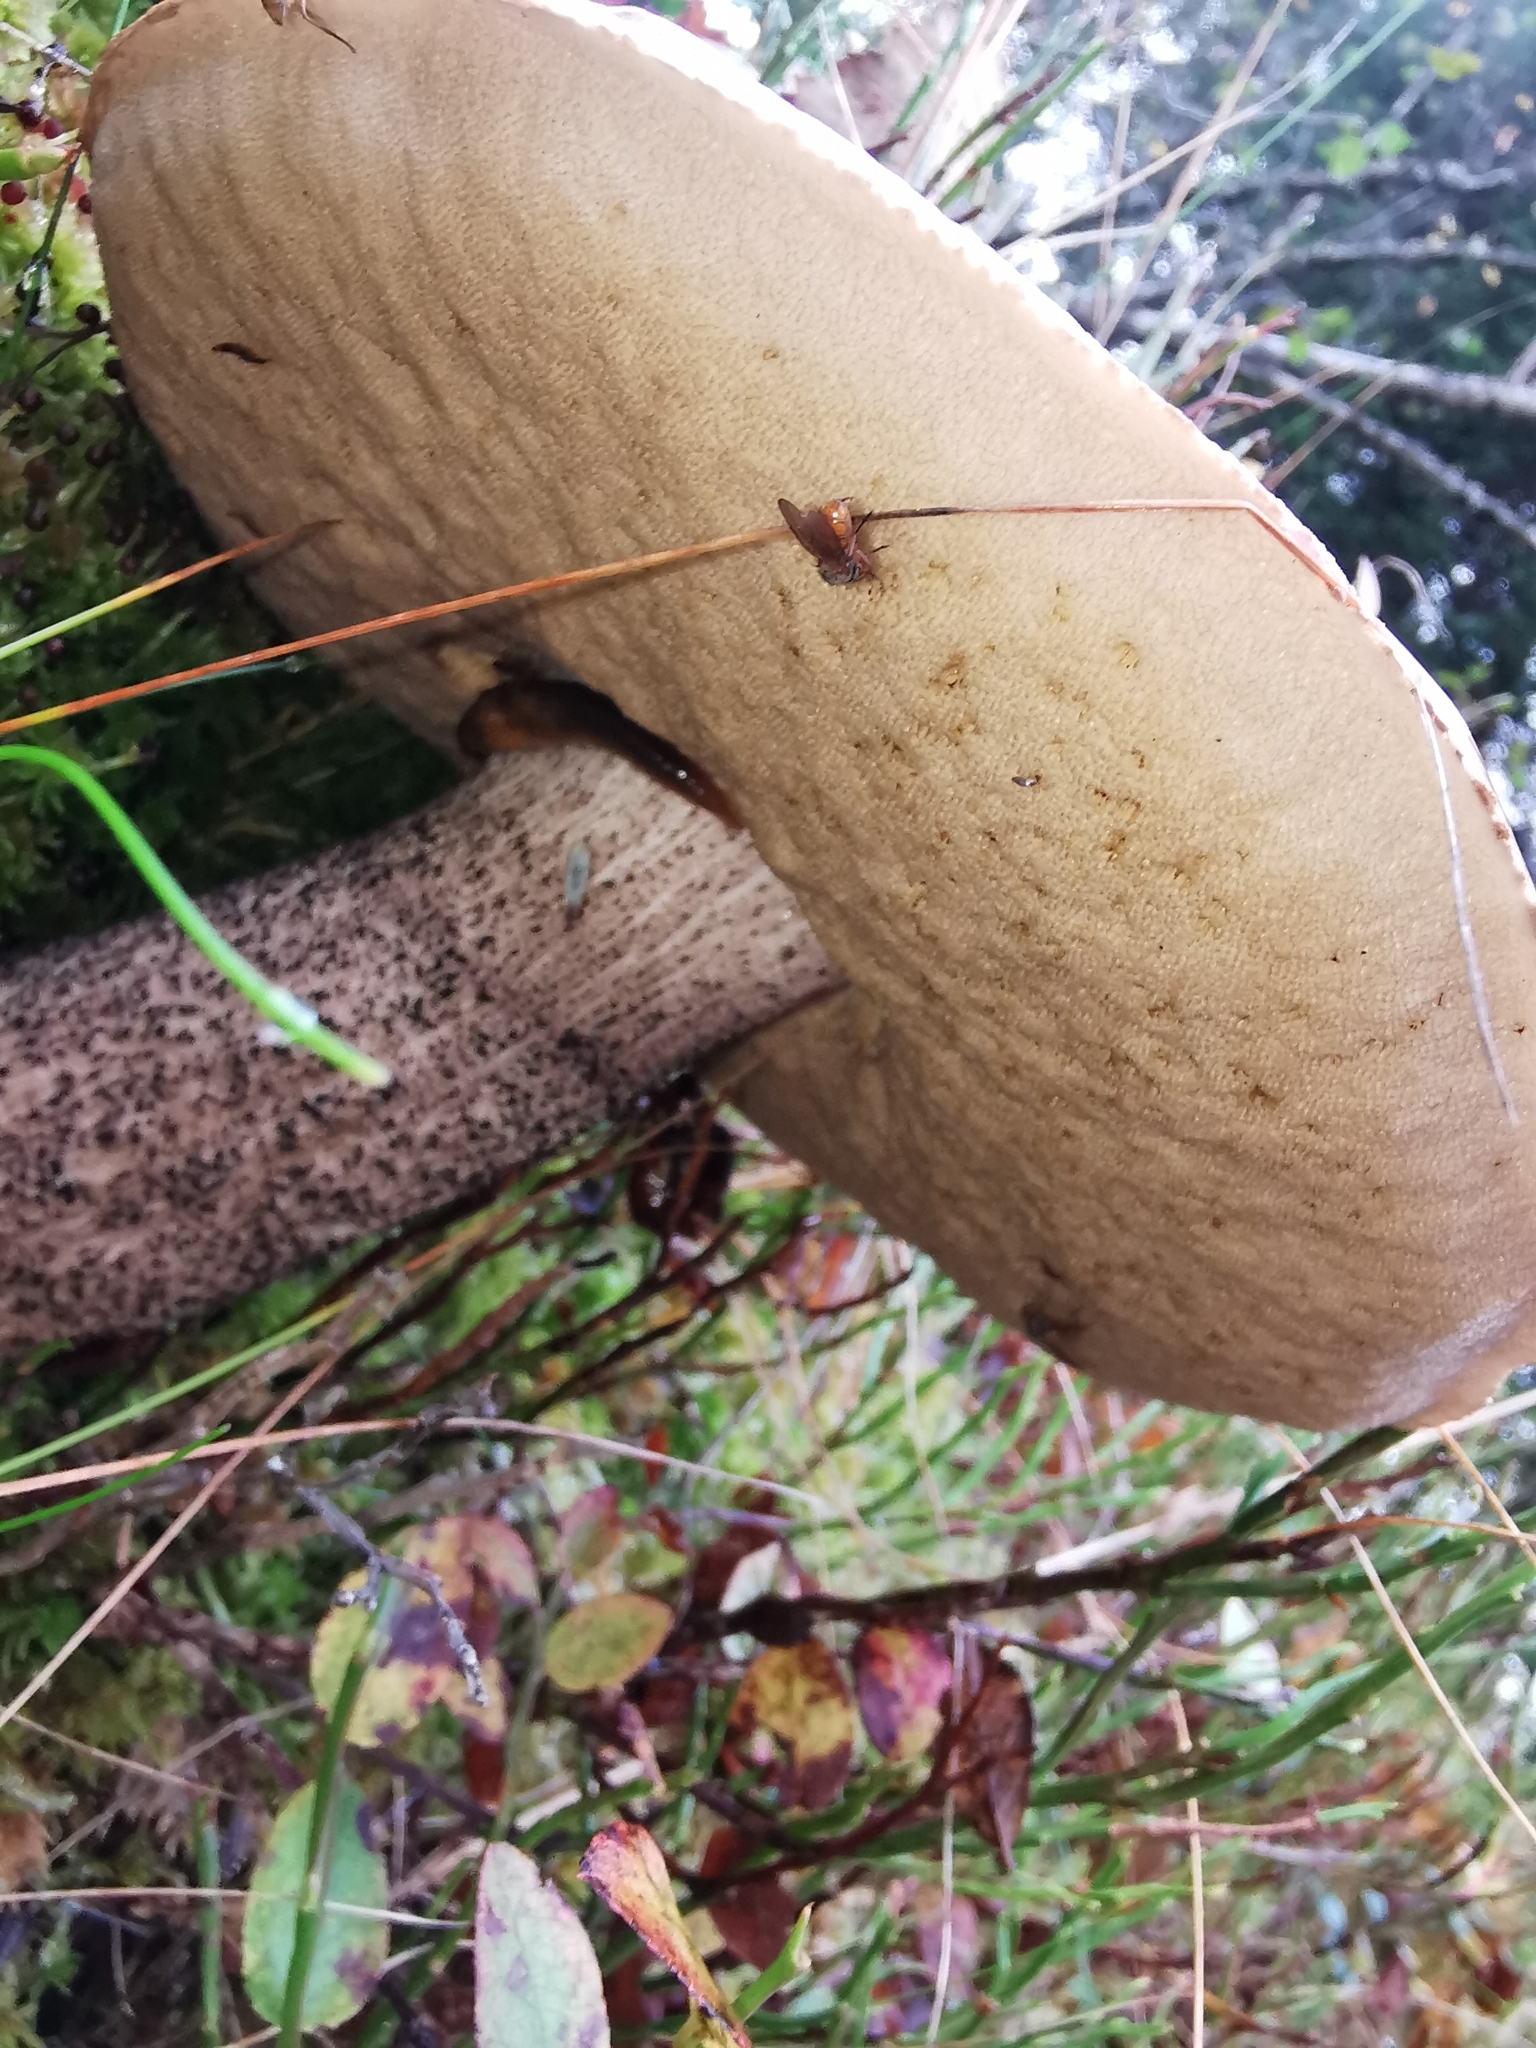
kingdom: Fungi
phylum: Basidiomycota
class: Agaricomycetes
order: Boletales
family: Boletaceae
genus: Leccinum
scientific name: Leccinum scabrum
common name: Blushing bolete
